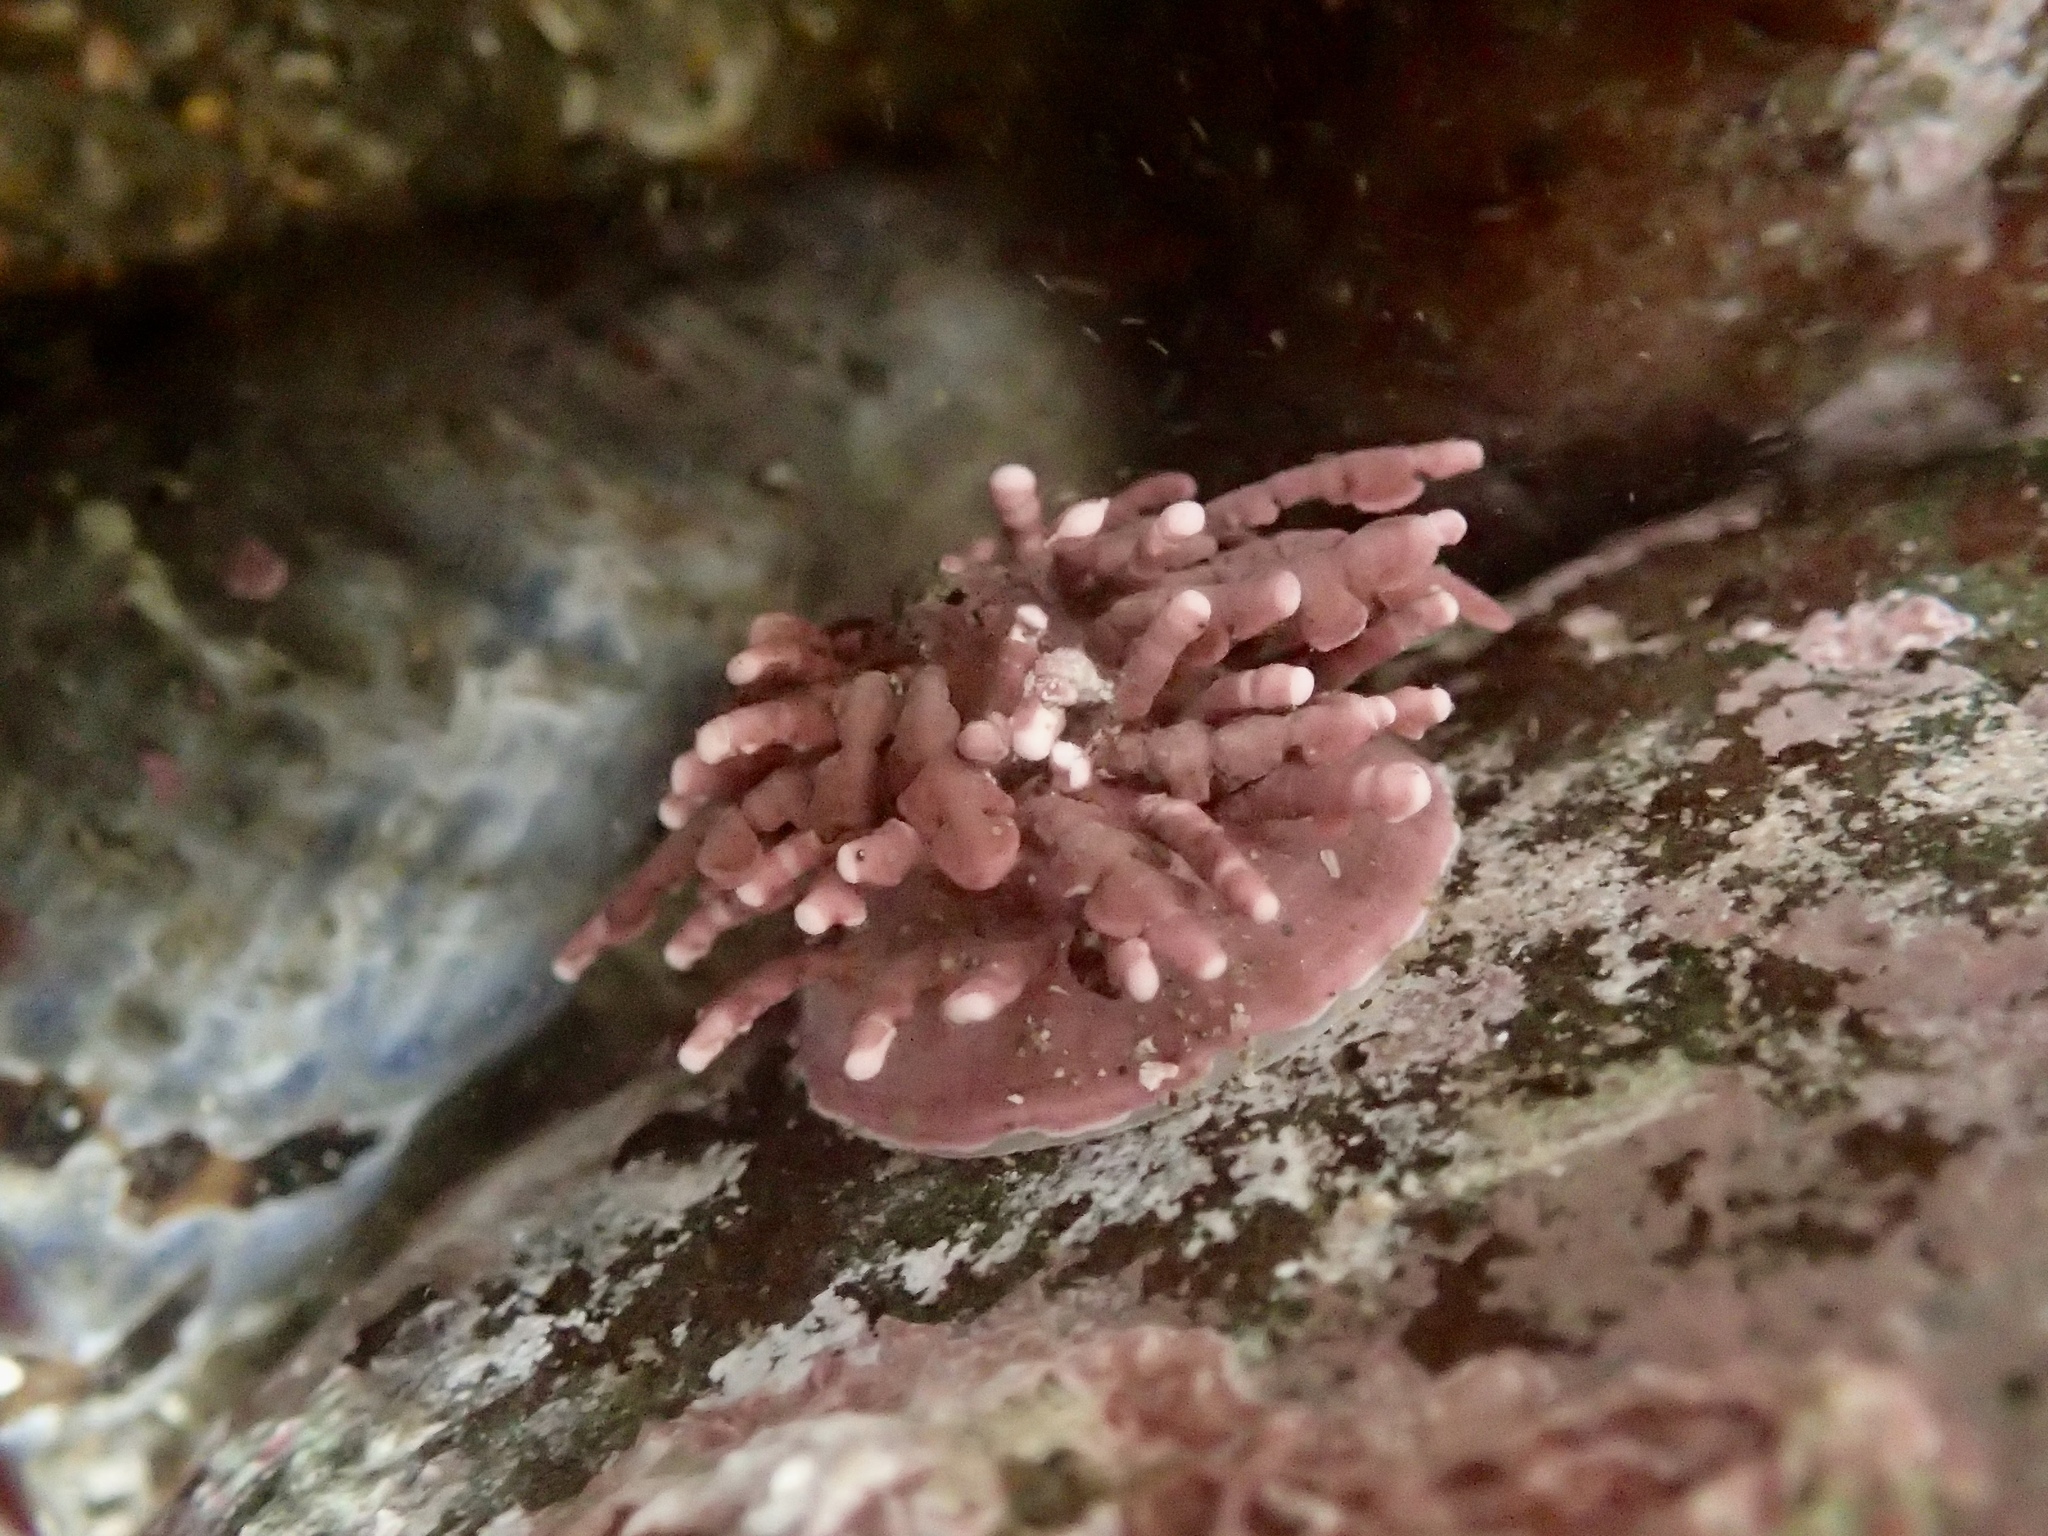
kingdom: Animalia
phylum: Mollusca
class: Gastropoda
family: Acmaeidae
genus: Acmaea
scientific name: Acmaea mitra
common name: Pacific white cap limpet
